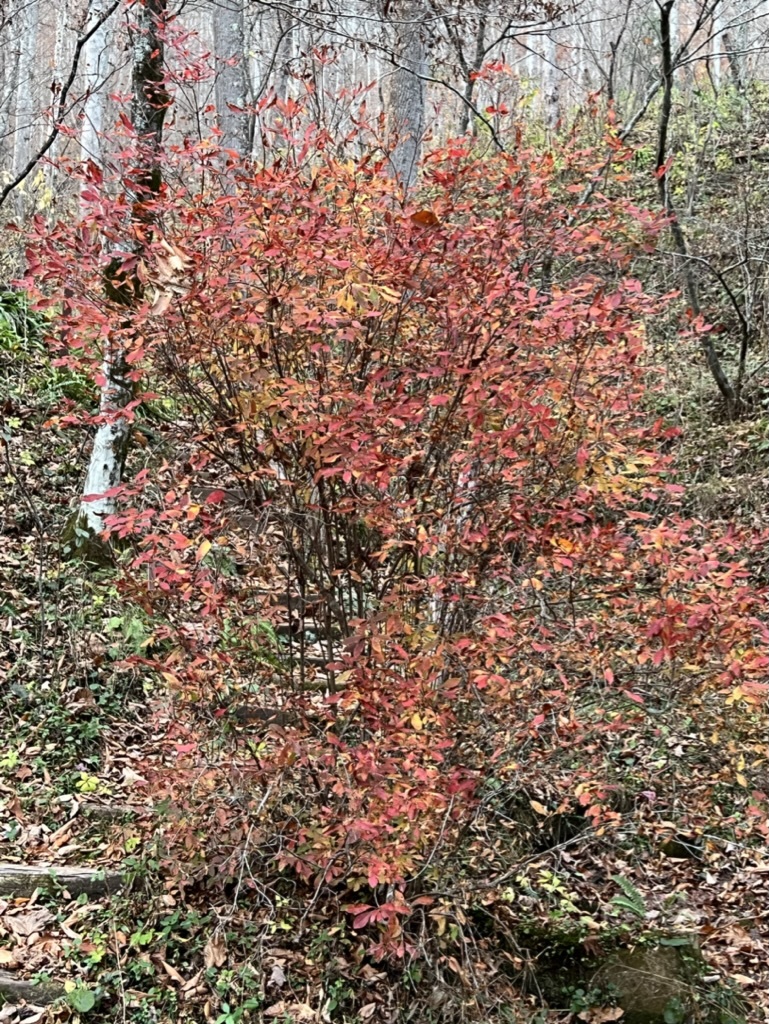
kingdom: Plantae
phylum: Tracheophyta
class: Magnoliopsida
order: Ericales
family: Ericaceae
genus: Rhododendron
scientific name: Rhododendron periclymenoides
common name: Election-pink
